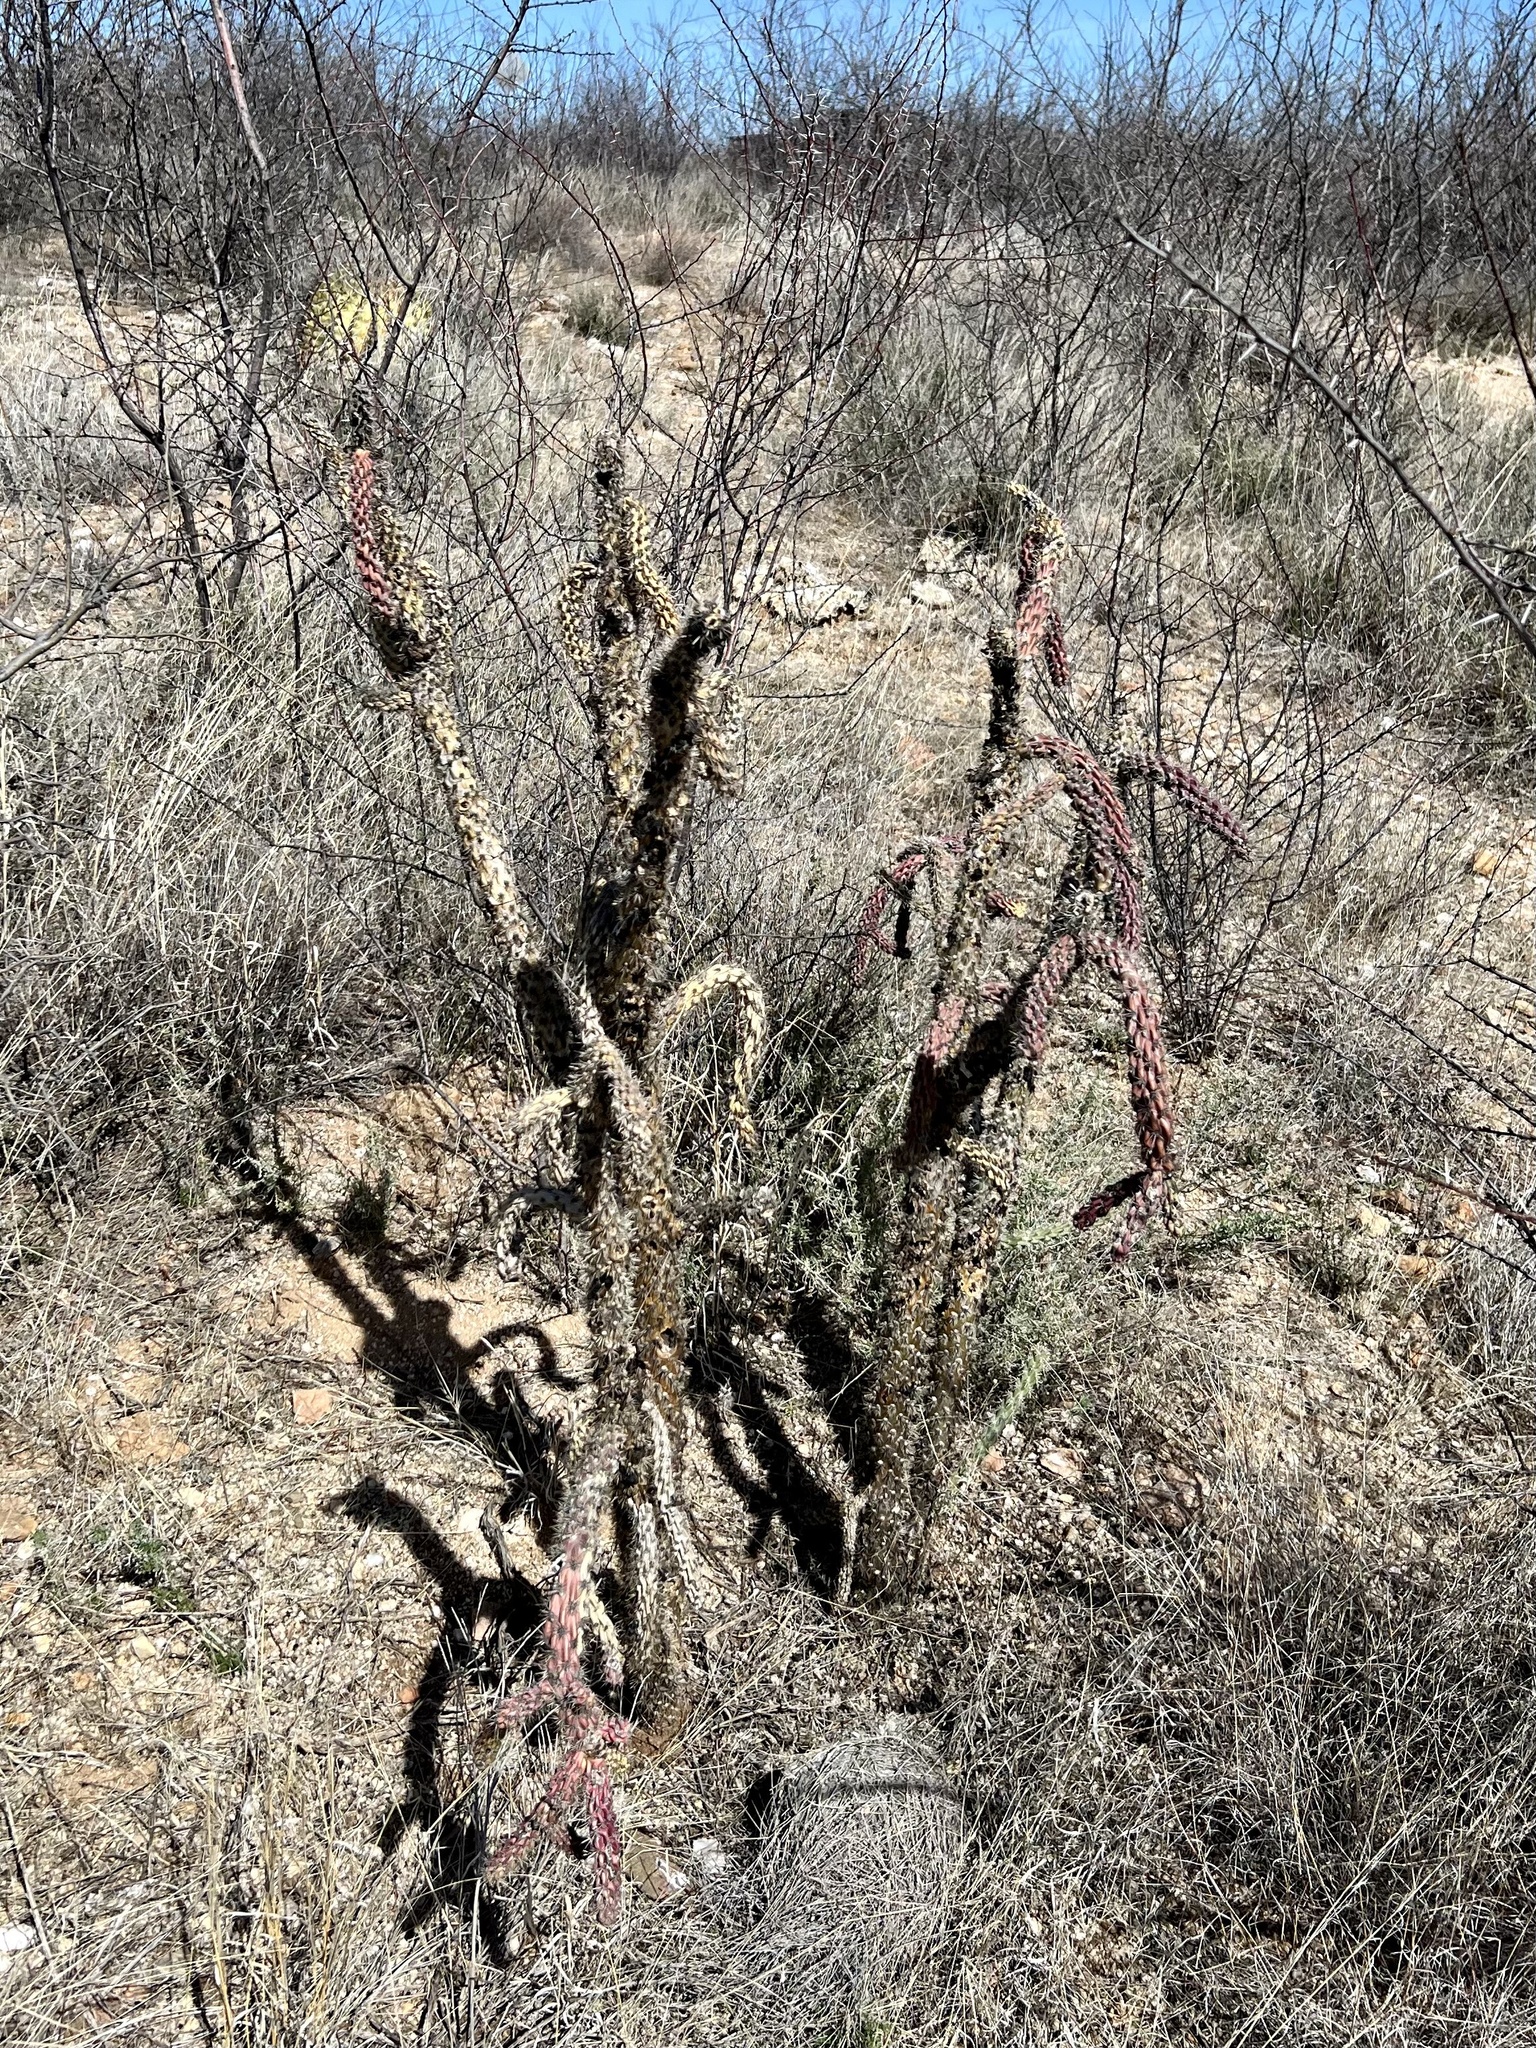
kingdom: Plantae
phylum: Tracheophyta
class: Magnoliopsida
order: Caryophyllales
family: Cactaceae
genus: Cylindropuntia
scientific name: Cylindropuntia imbricata
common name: Candelabrum cactus
